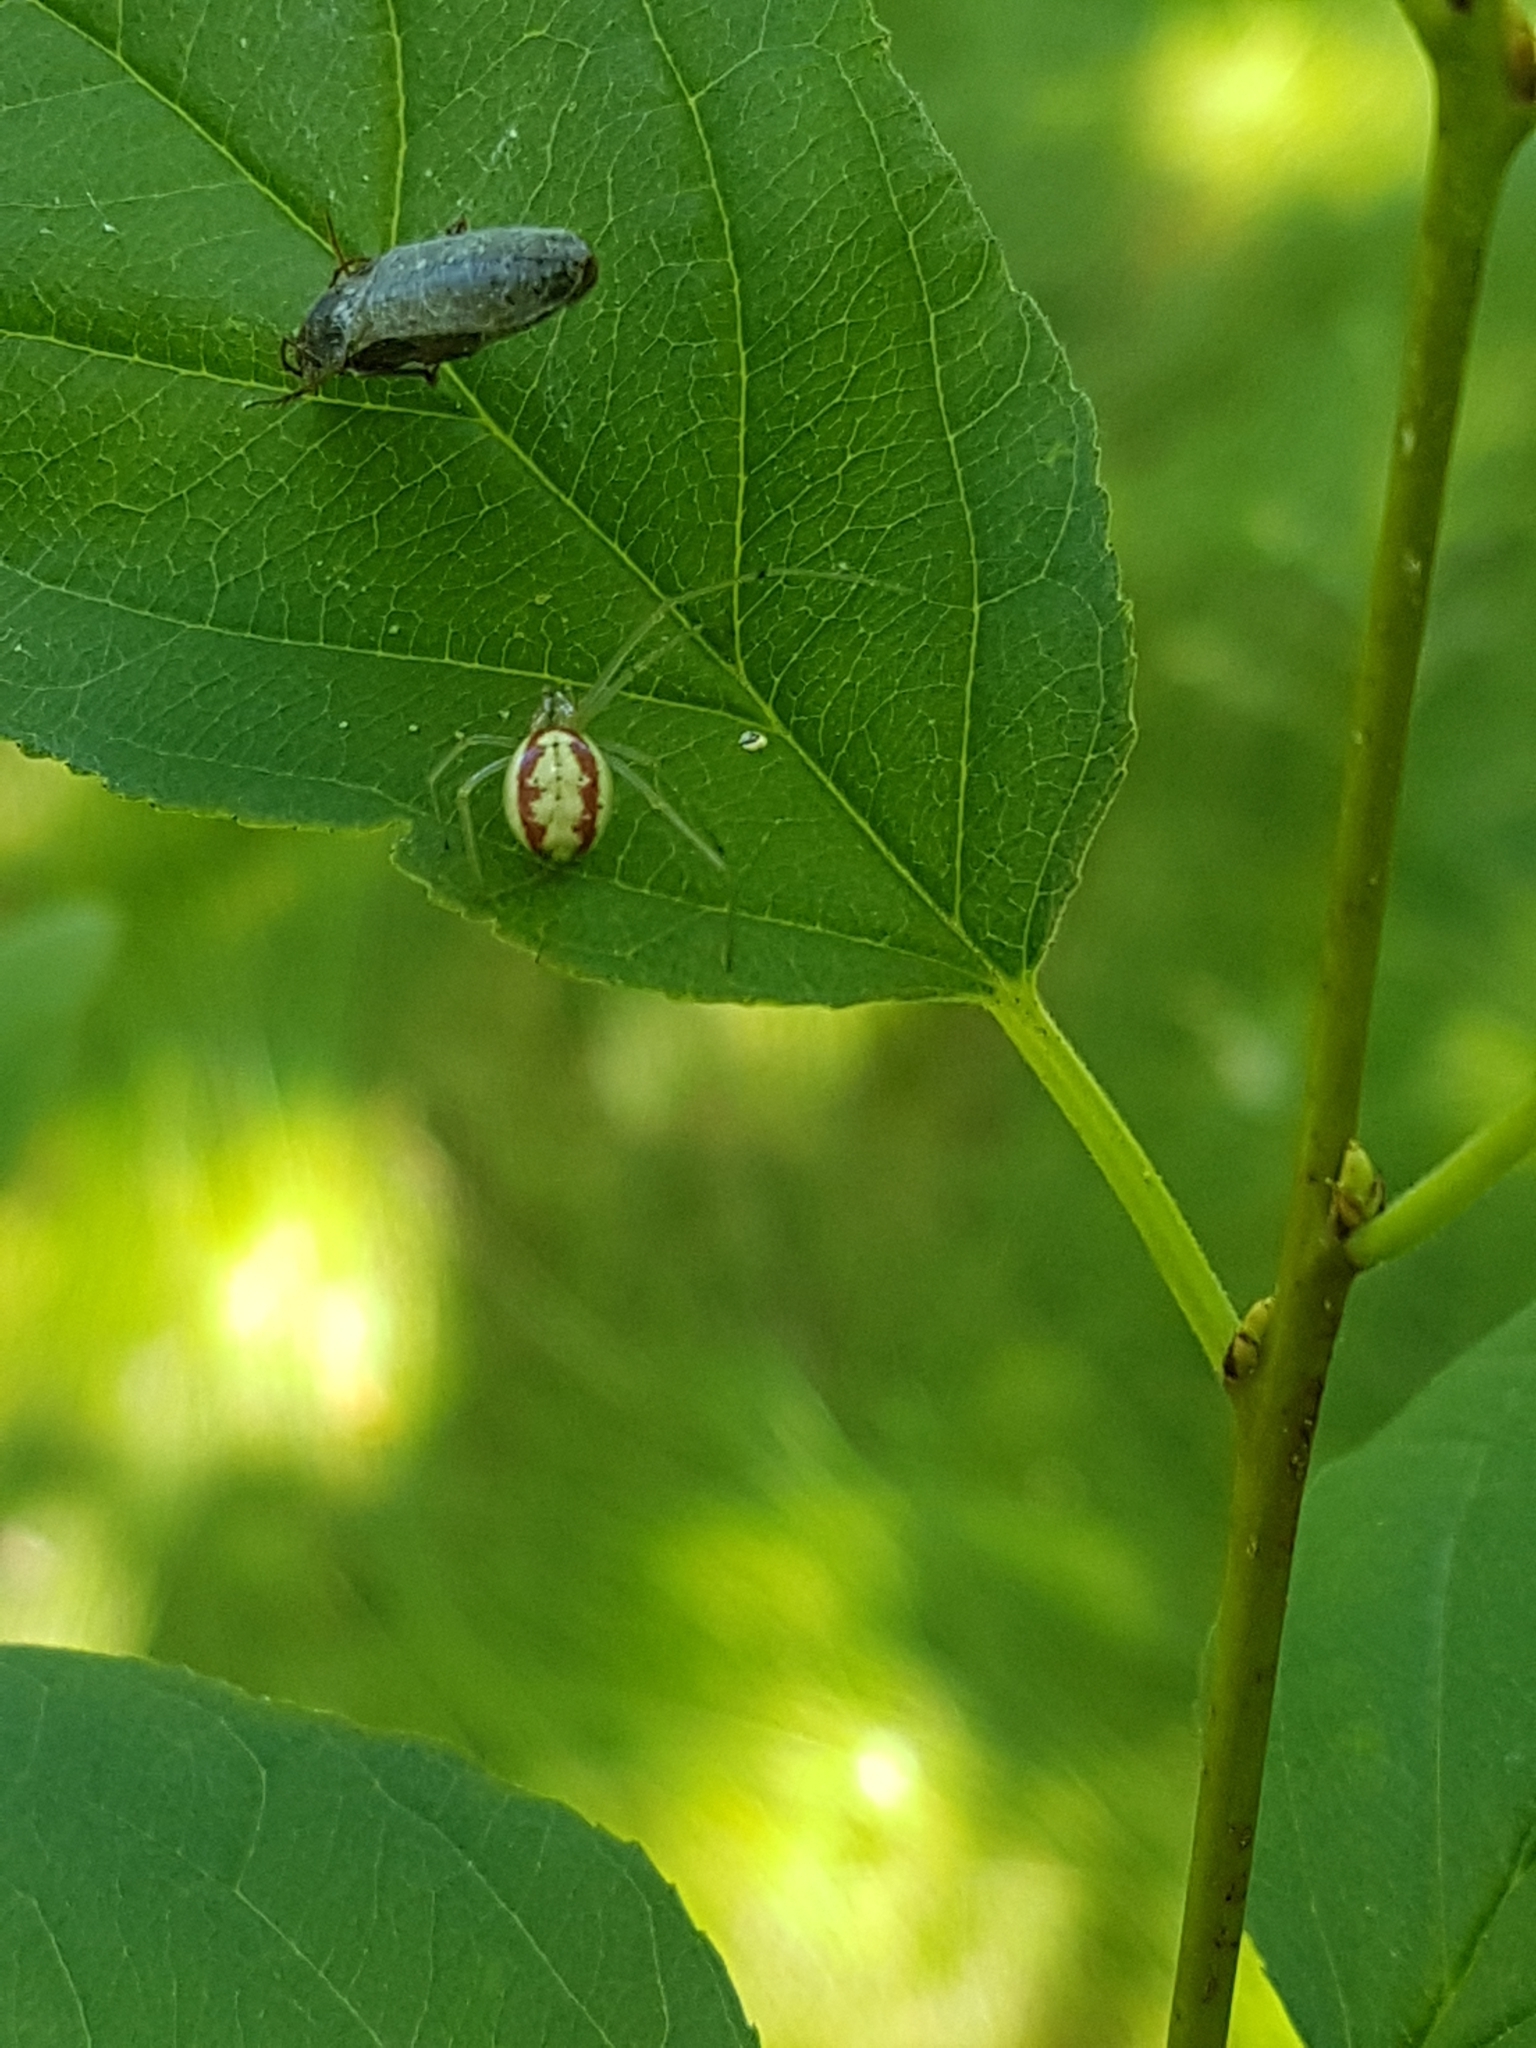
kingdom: Animalia
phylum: Arthropoda
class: Arachnida
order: Araneae
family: Theridiidae
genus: Enoplognatha
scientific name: Enoplognatha ovata
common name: Common candy-striped spider
